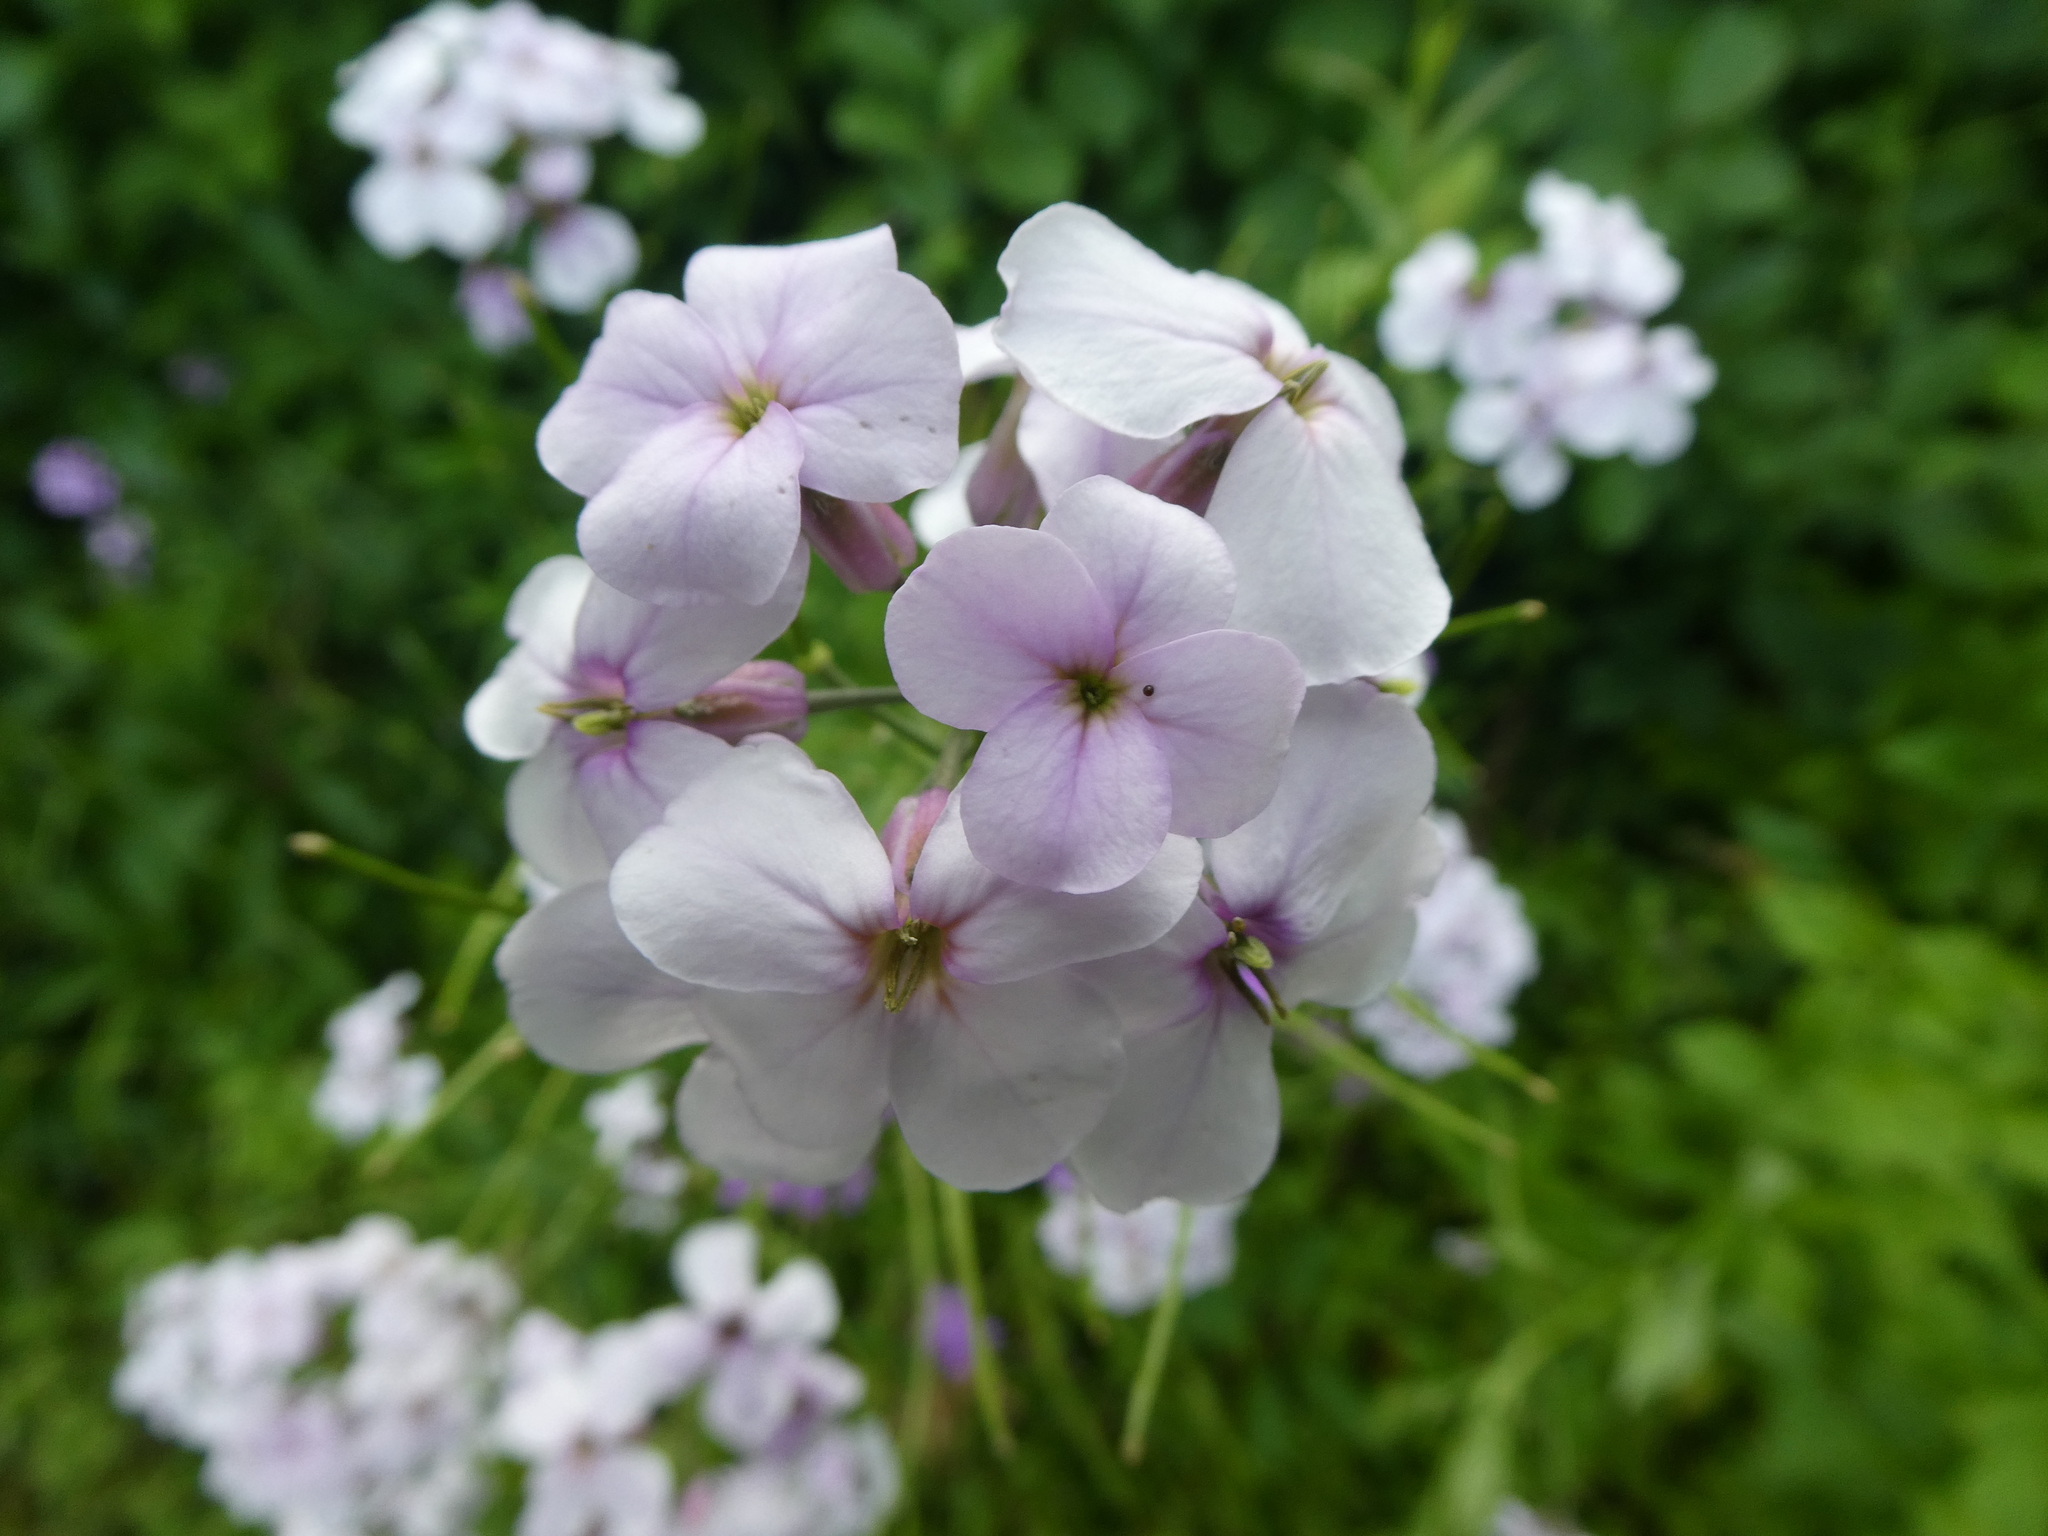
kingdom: Plantae
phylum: Tracheophyta
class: Magnoliopsida
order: Brassicales
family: Brassicaceae
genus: Hesperis
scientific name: Hesperis matronalis
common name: Dame's-violet
